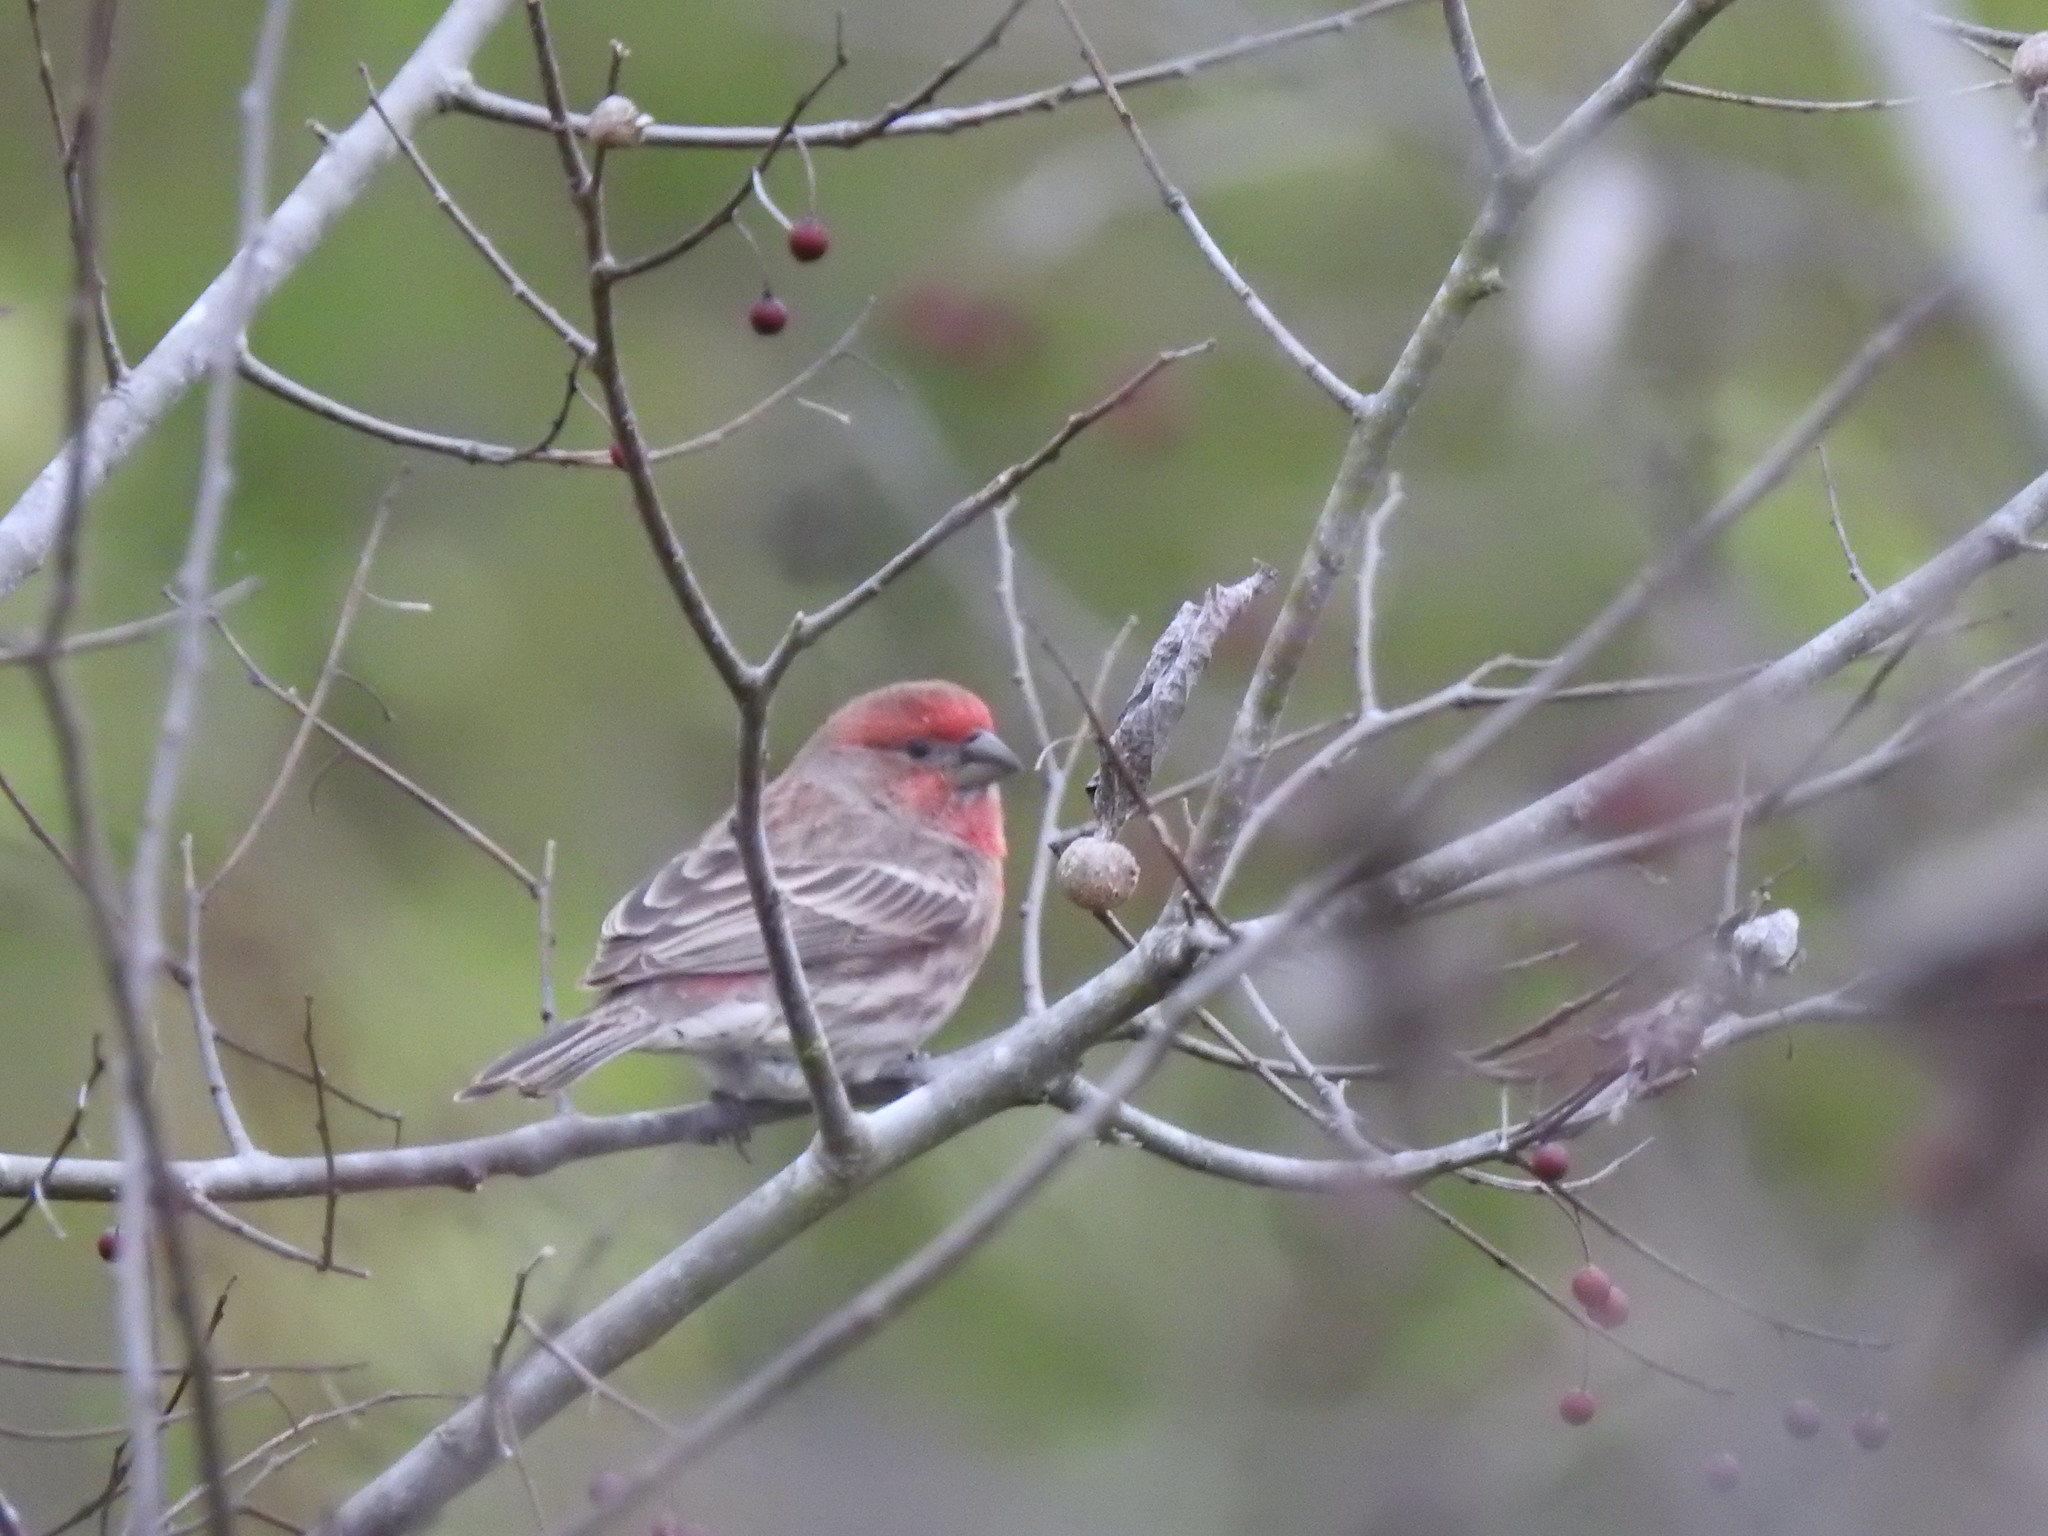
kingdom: Animalia
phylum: Chordata
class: Aves
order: Passeriformes
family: Fringillidae
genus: Haemorhous
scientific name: Haemorhous mexicanus
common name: House finch
